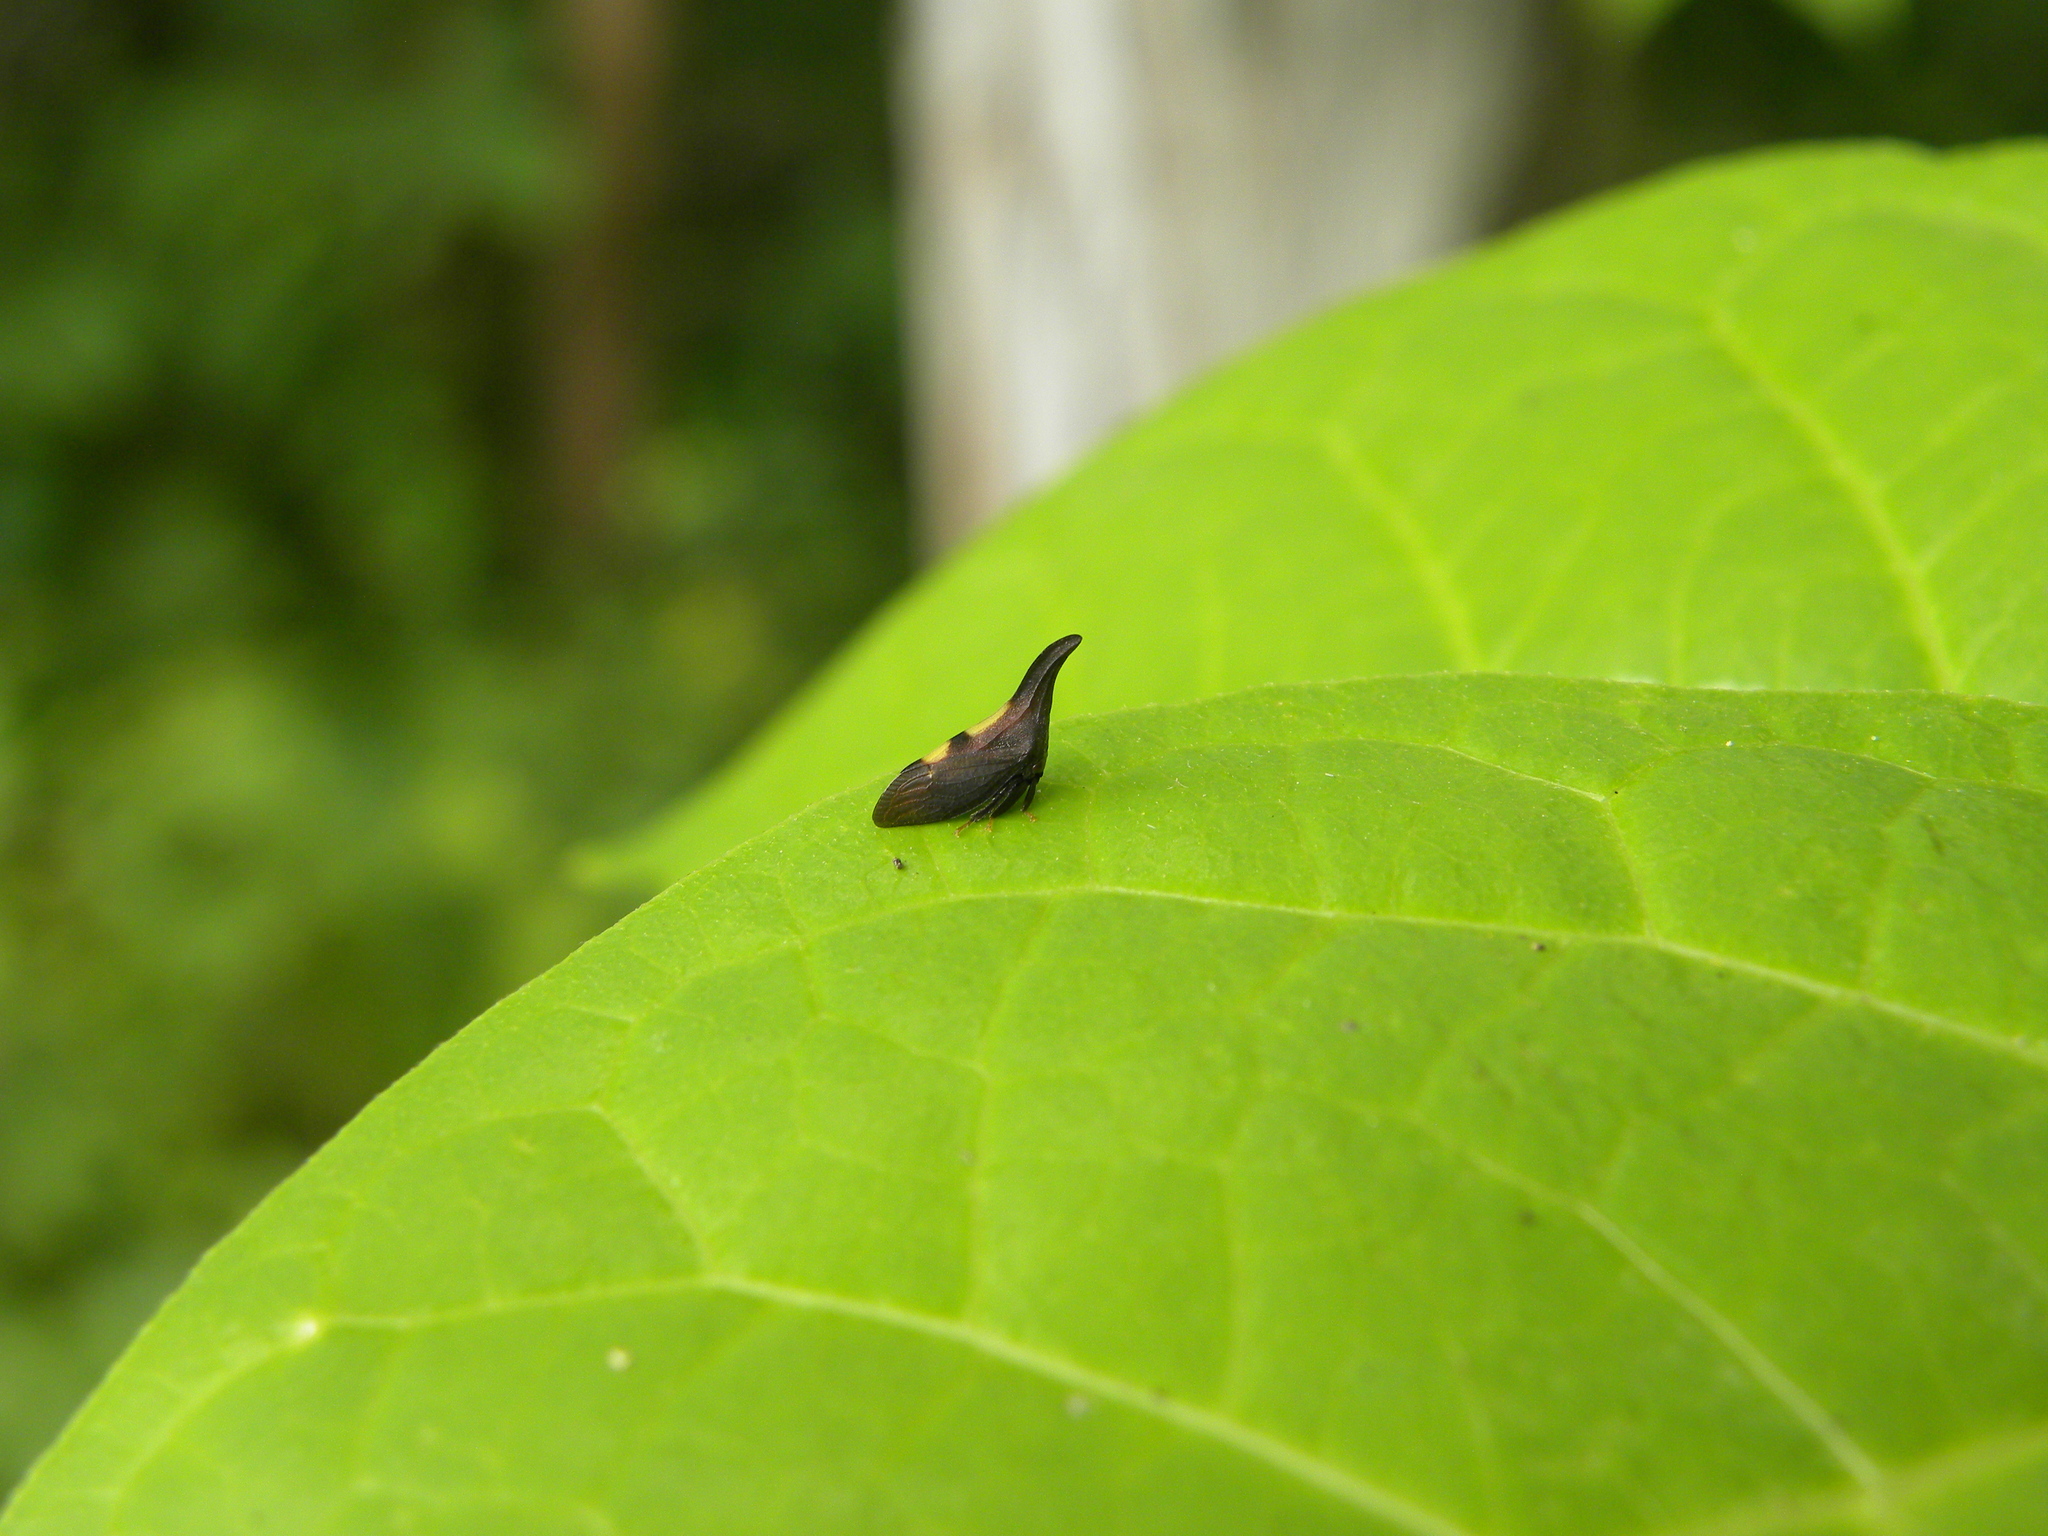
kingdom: Animalia
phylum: Arthropoda
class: Insecta
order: Hemiptera
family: Membracidae
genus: Enchenopa
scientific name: Enchenopa
